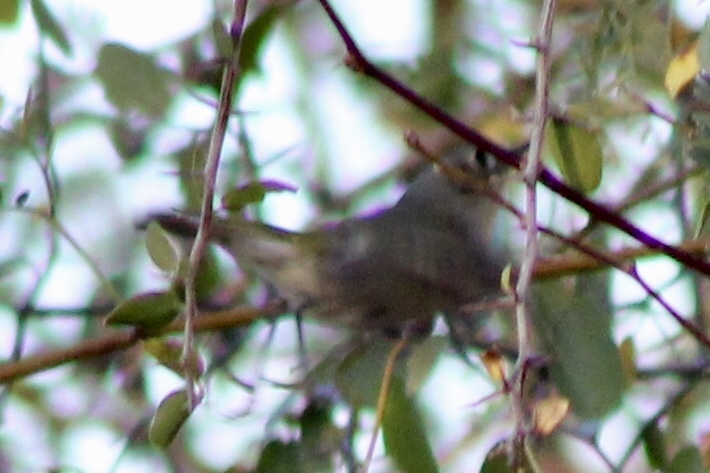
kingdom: Animalia
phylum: Chordata
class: Aves
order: Passeriformes
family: Regulidae
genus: Regulus
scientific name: Regulus calendula
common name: Ruby-crowned kinglet
